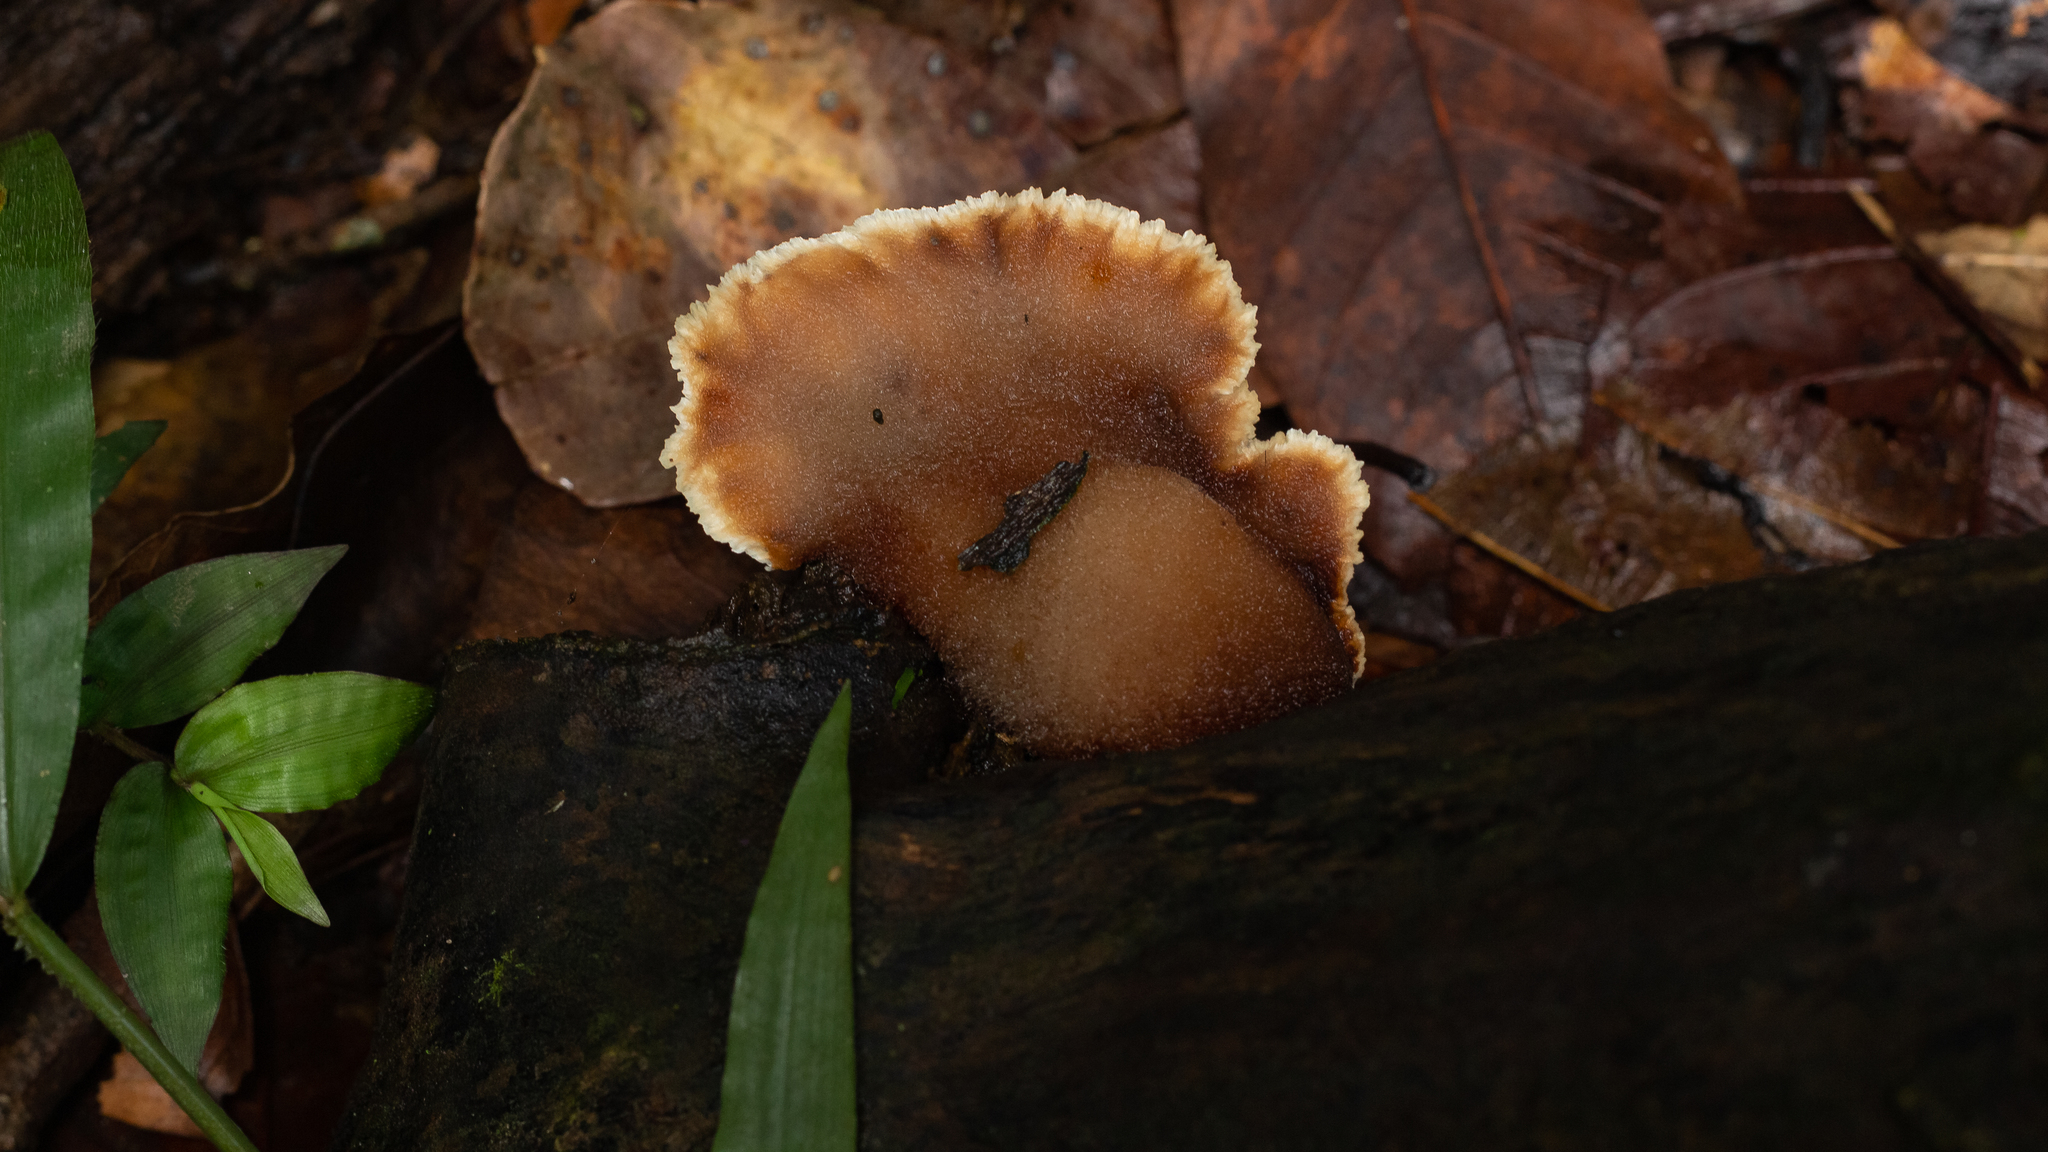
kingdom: Fungi
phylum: Basidiomycota
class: Agaricomycetes
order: Polyporales
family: Panaceae
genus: Cymatoderma
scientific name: Cymatoderma dendriticum
